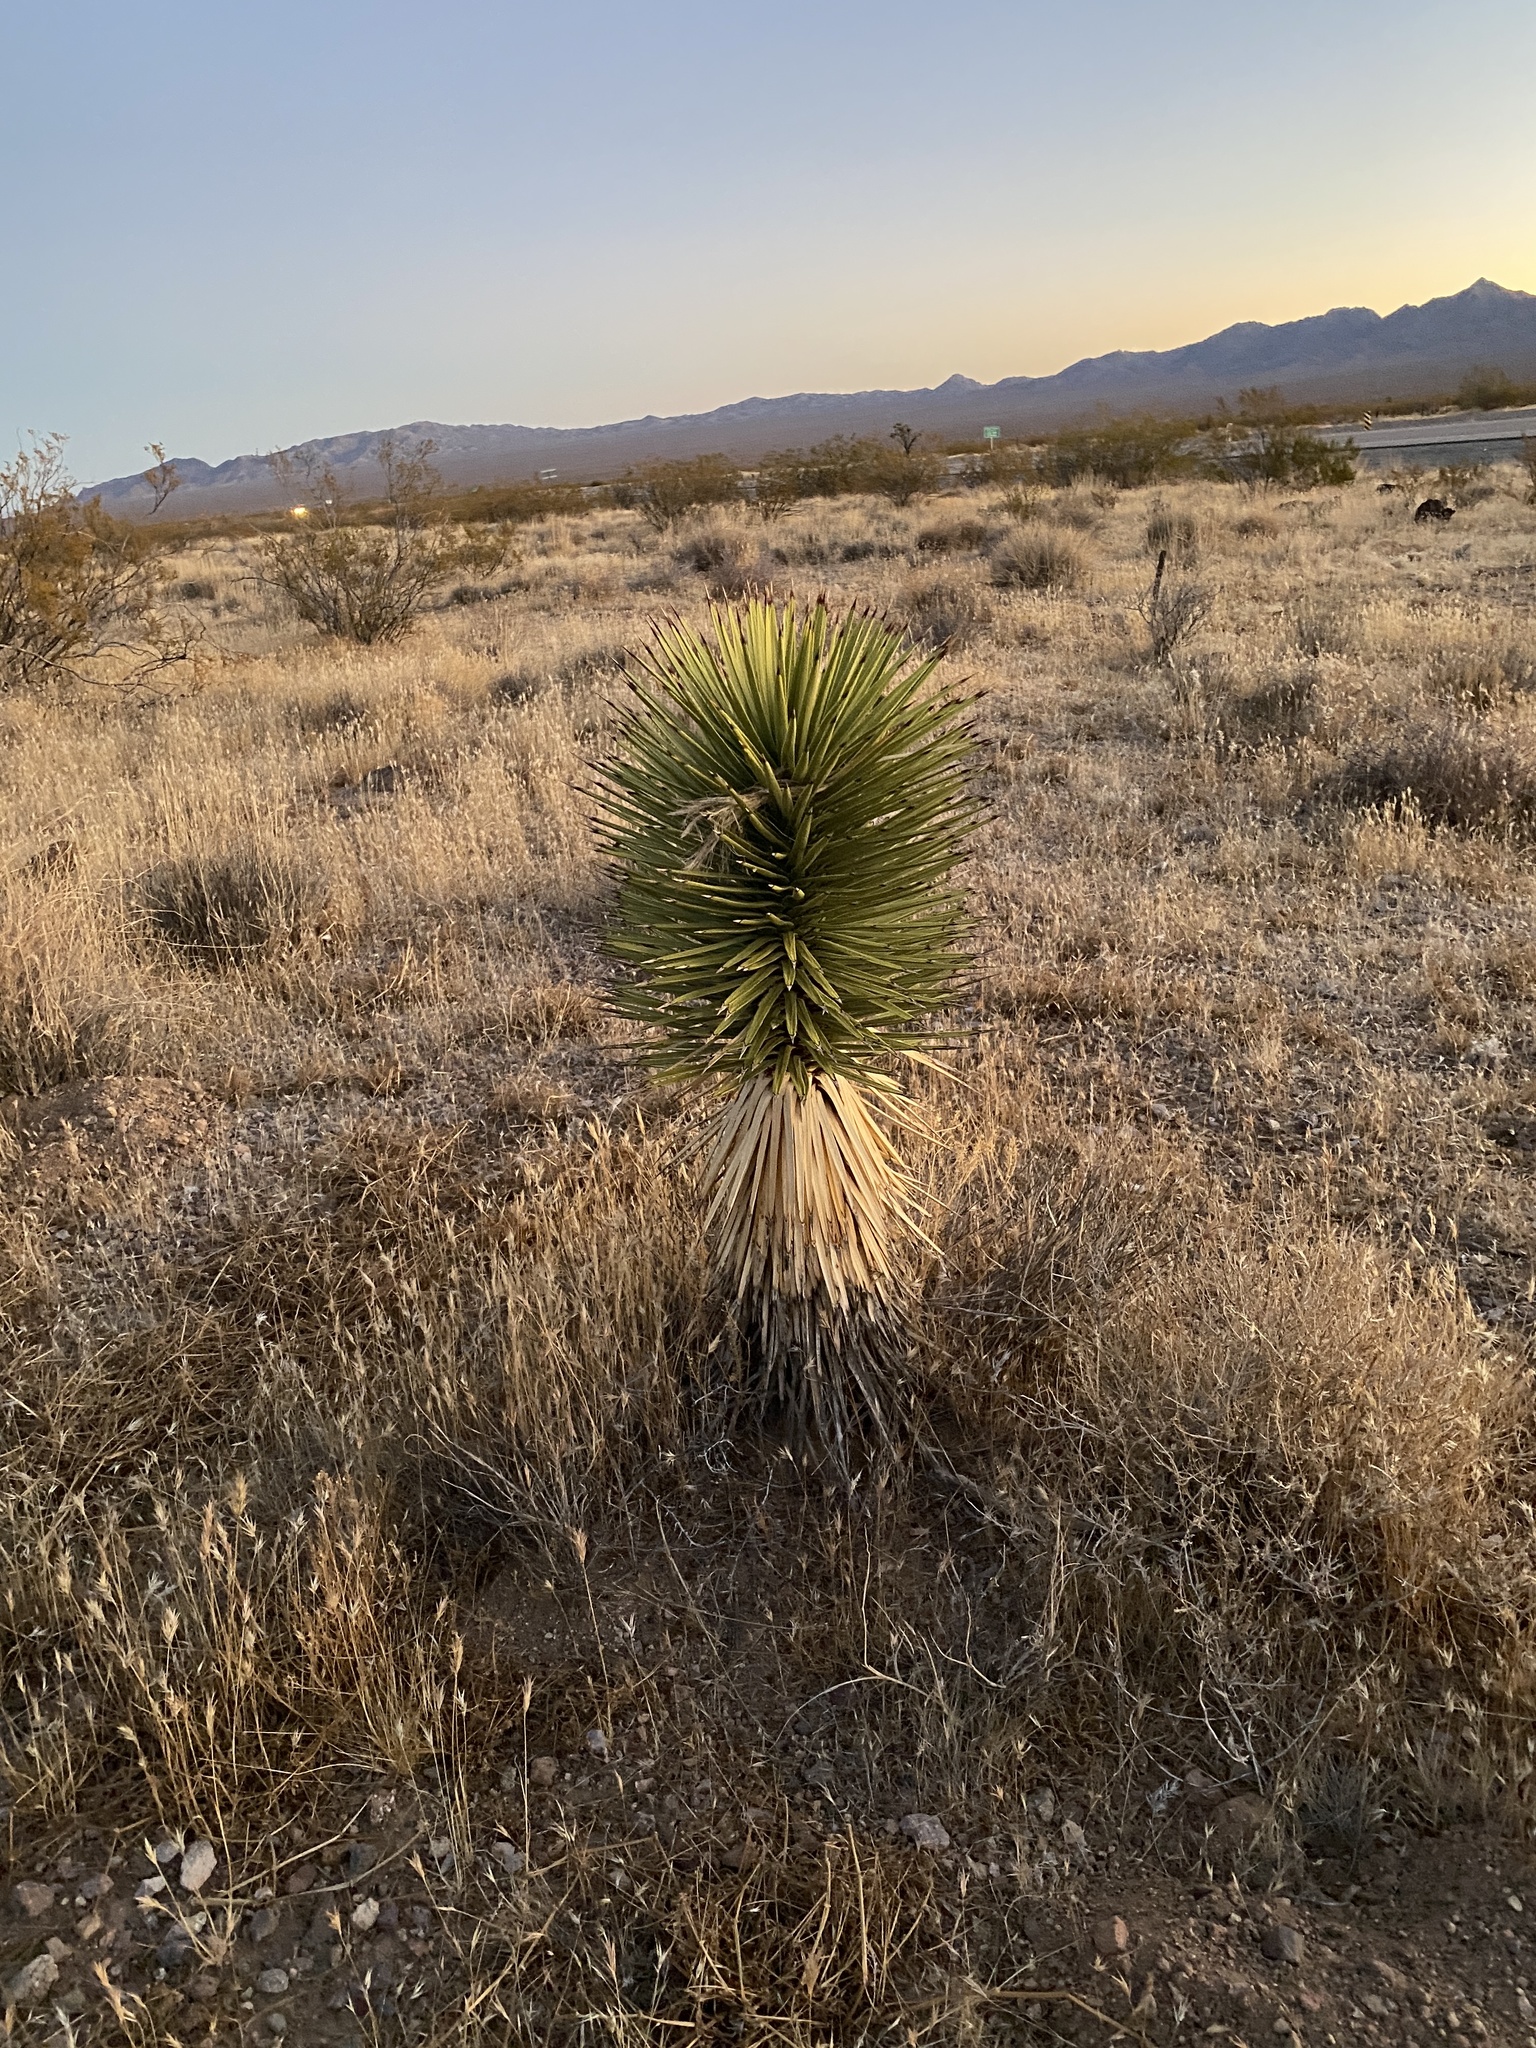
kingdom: Plantae
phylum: Tracheophyta
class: Liliopsida
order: Asparagales
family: Asparagaceae
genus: Yucca
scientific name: Yucca brevifolia
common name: Joshua tree
